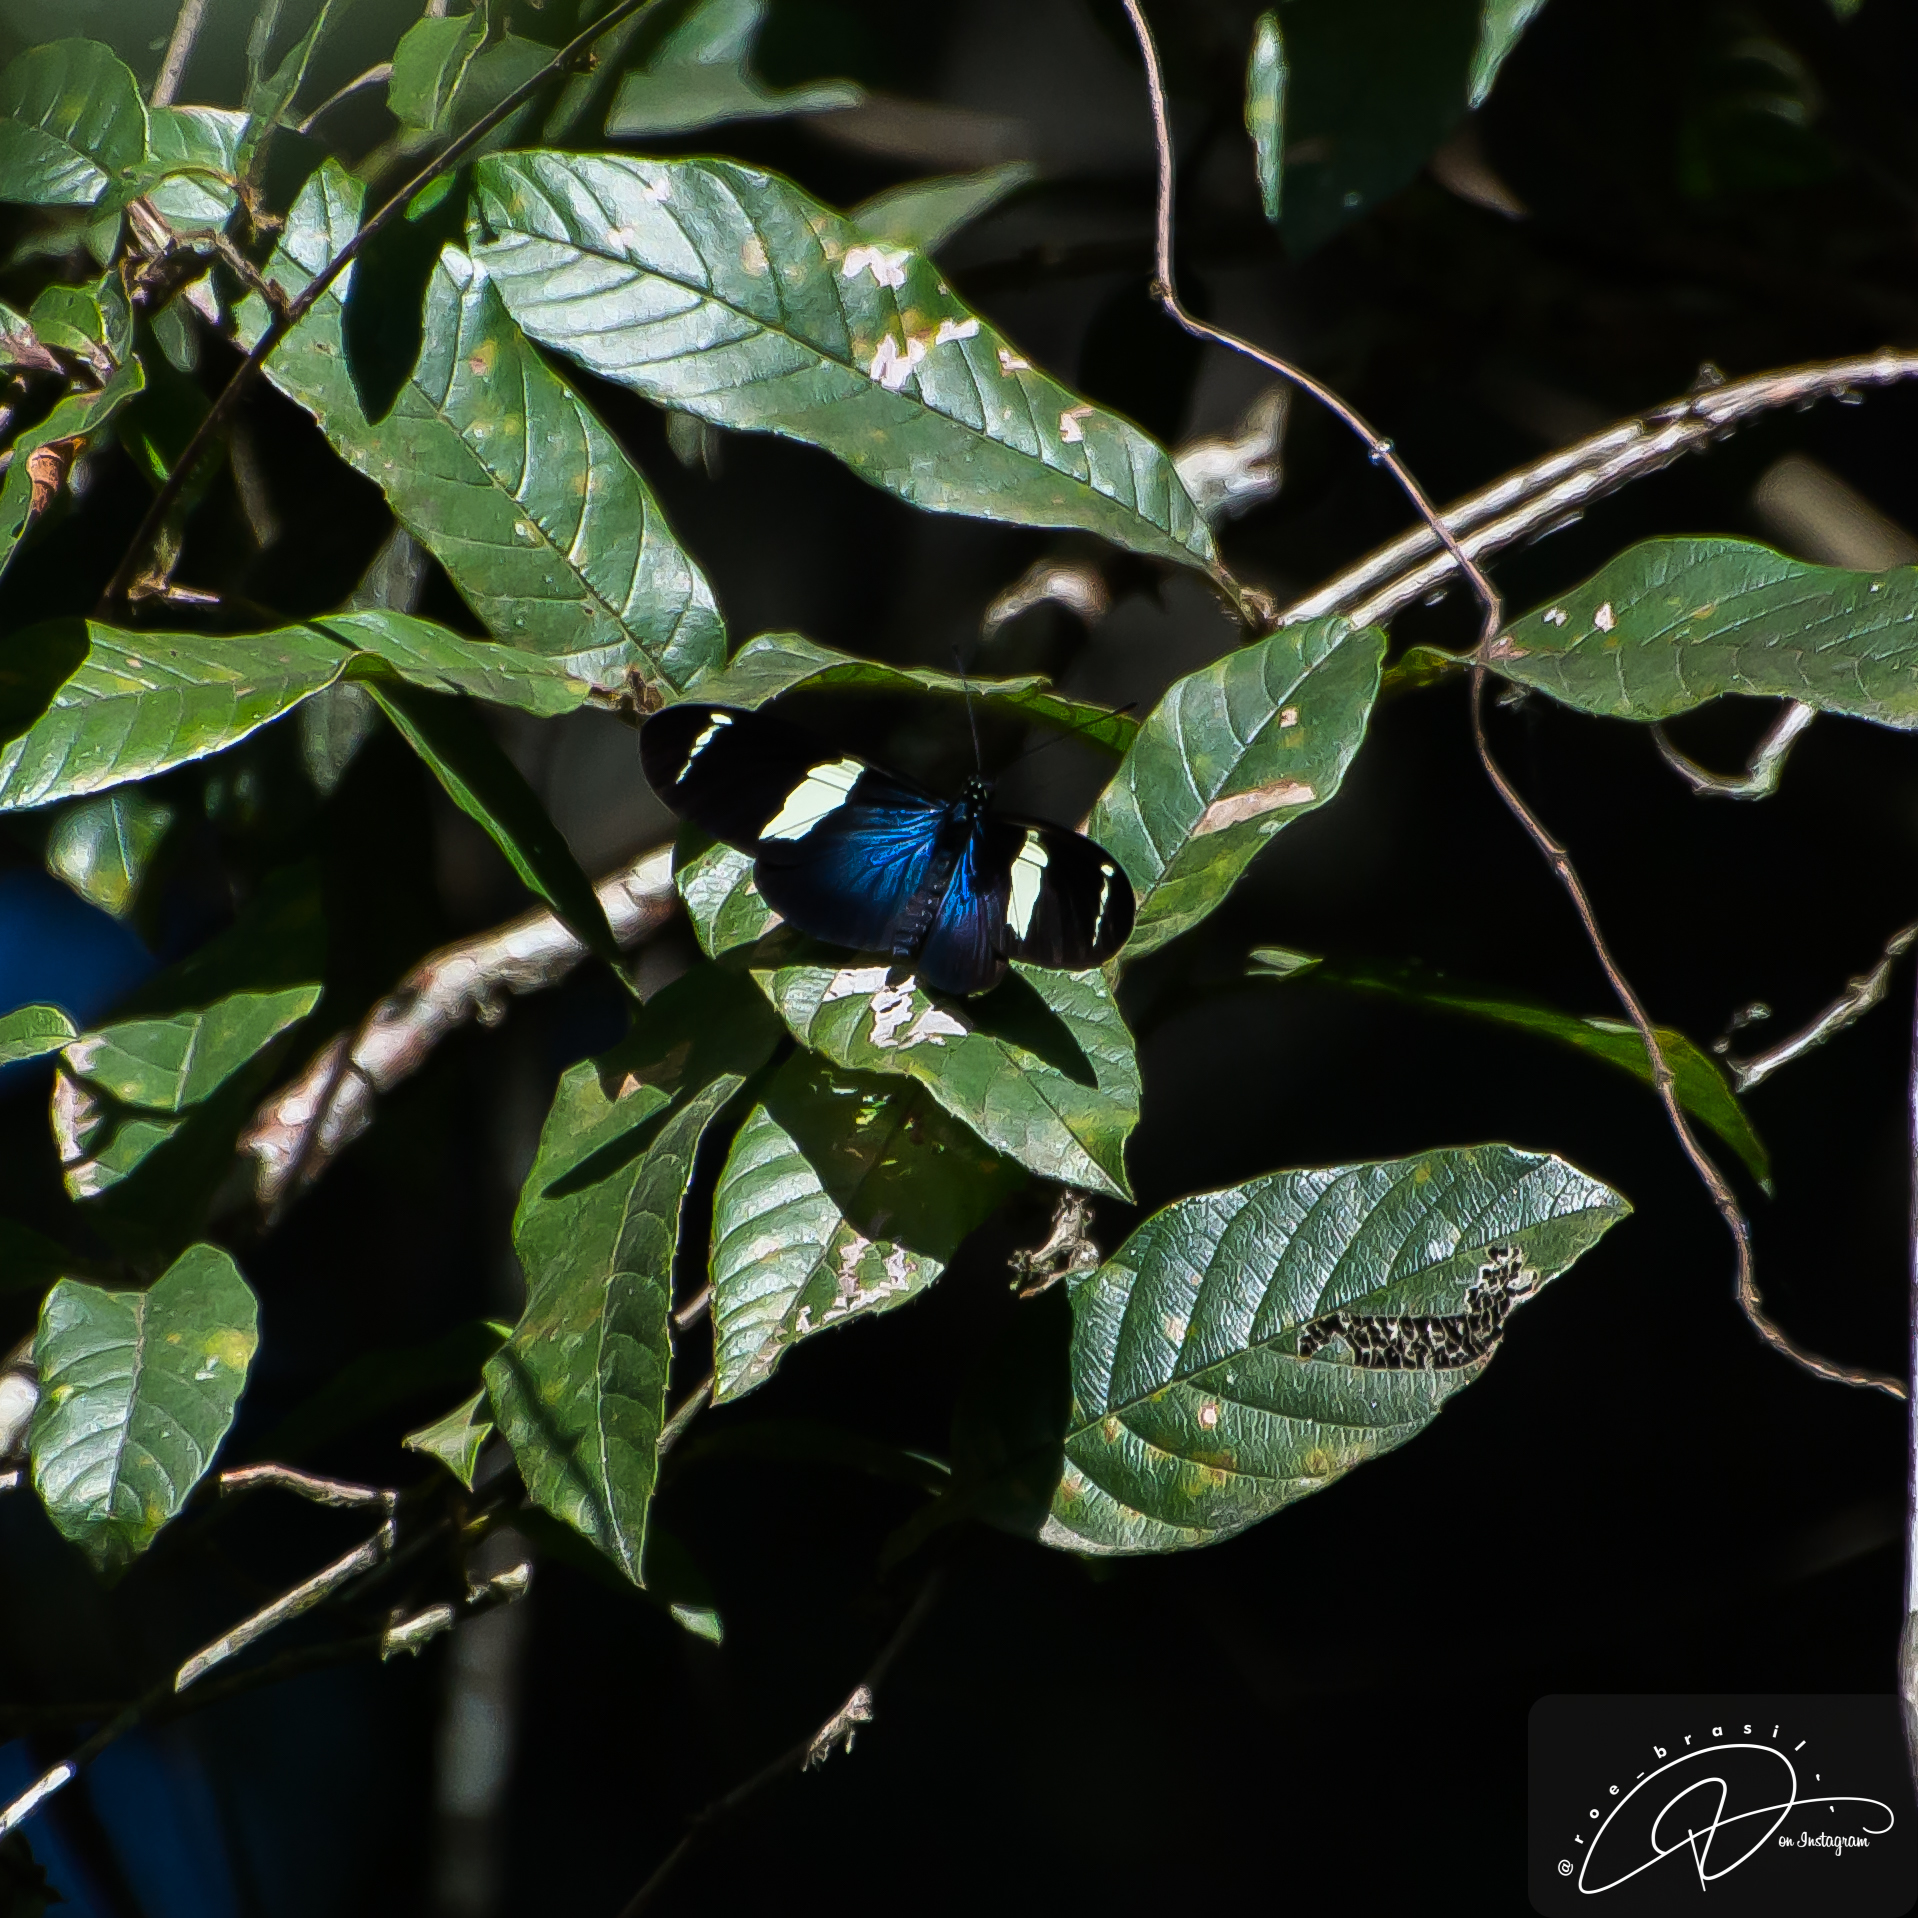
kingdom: Animalia
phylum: Arthropoda
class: Insecta
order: Lepidoptera
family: Nymphalidae
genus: Heliconius
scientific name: Heliconius sara
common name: Sara longwing
